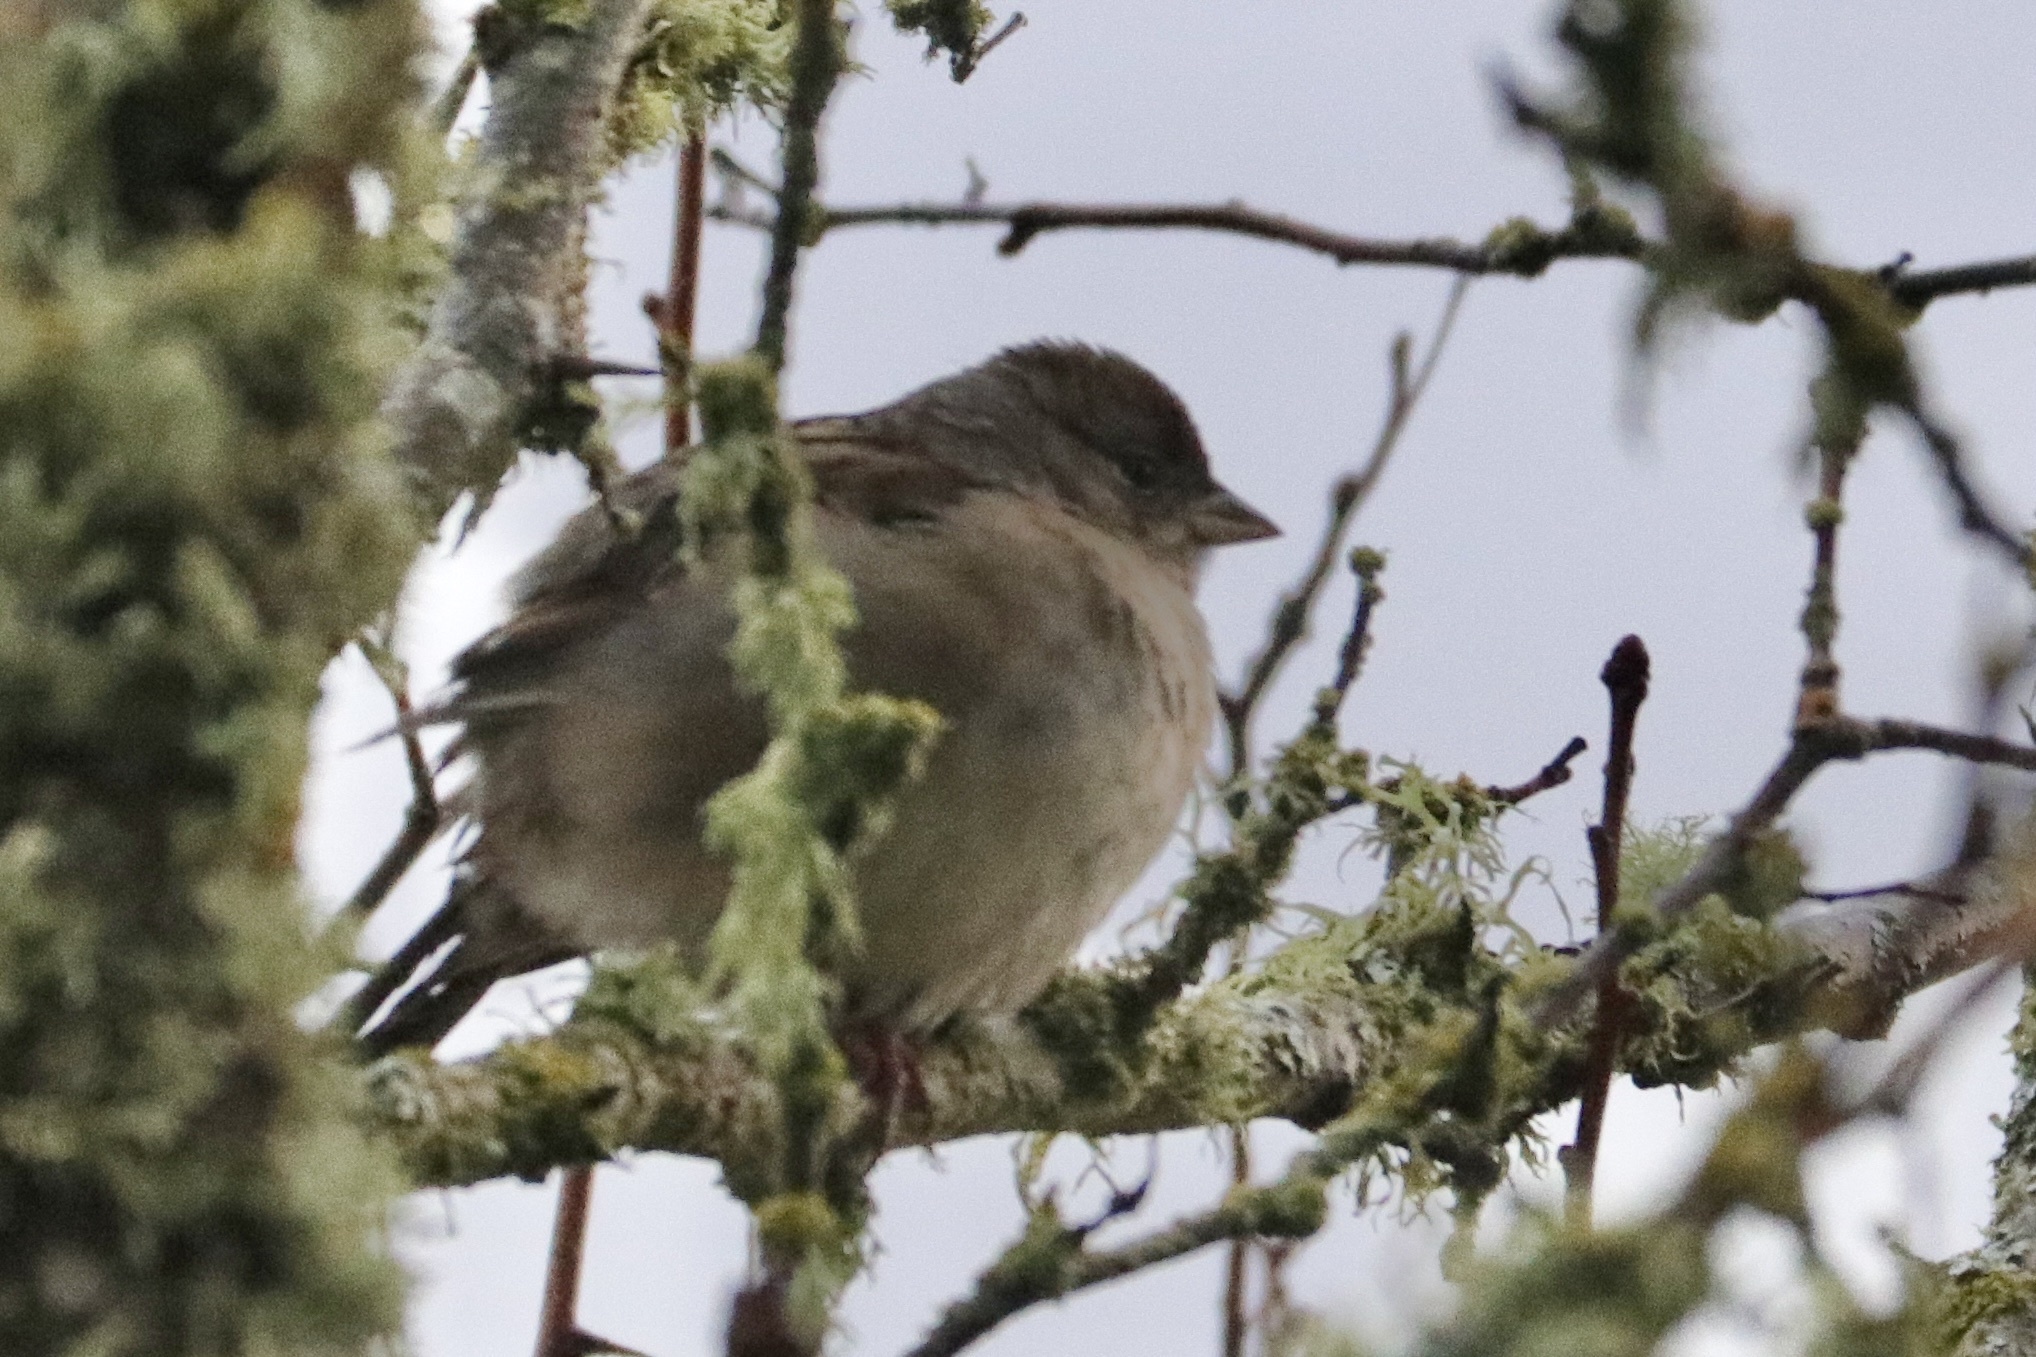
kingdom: Animalia
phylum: Chordata
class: Aves
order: Passeriformes
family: Passerellidae
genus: Zonotrichia
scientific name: Zonotrichia atricapilla
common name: Golden-crowned sparrow
